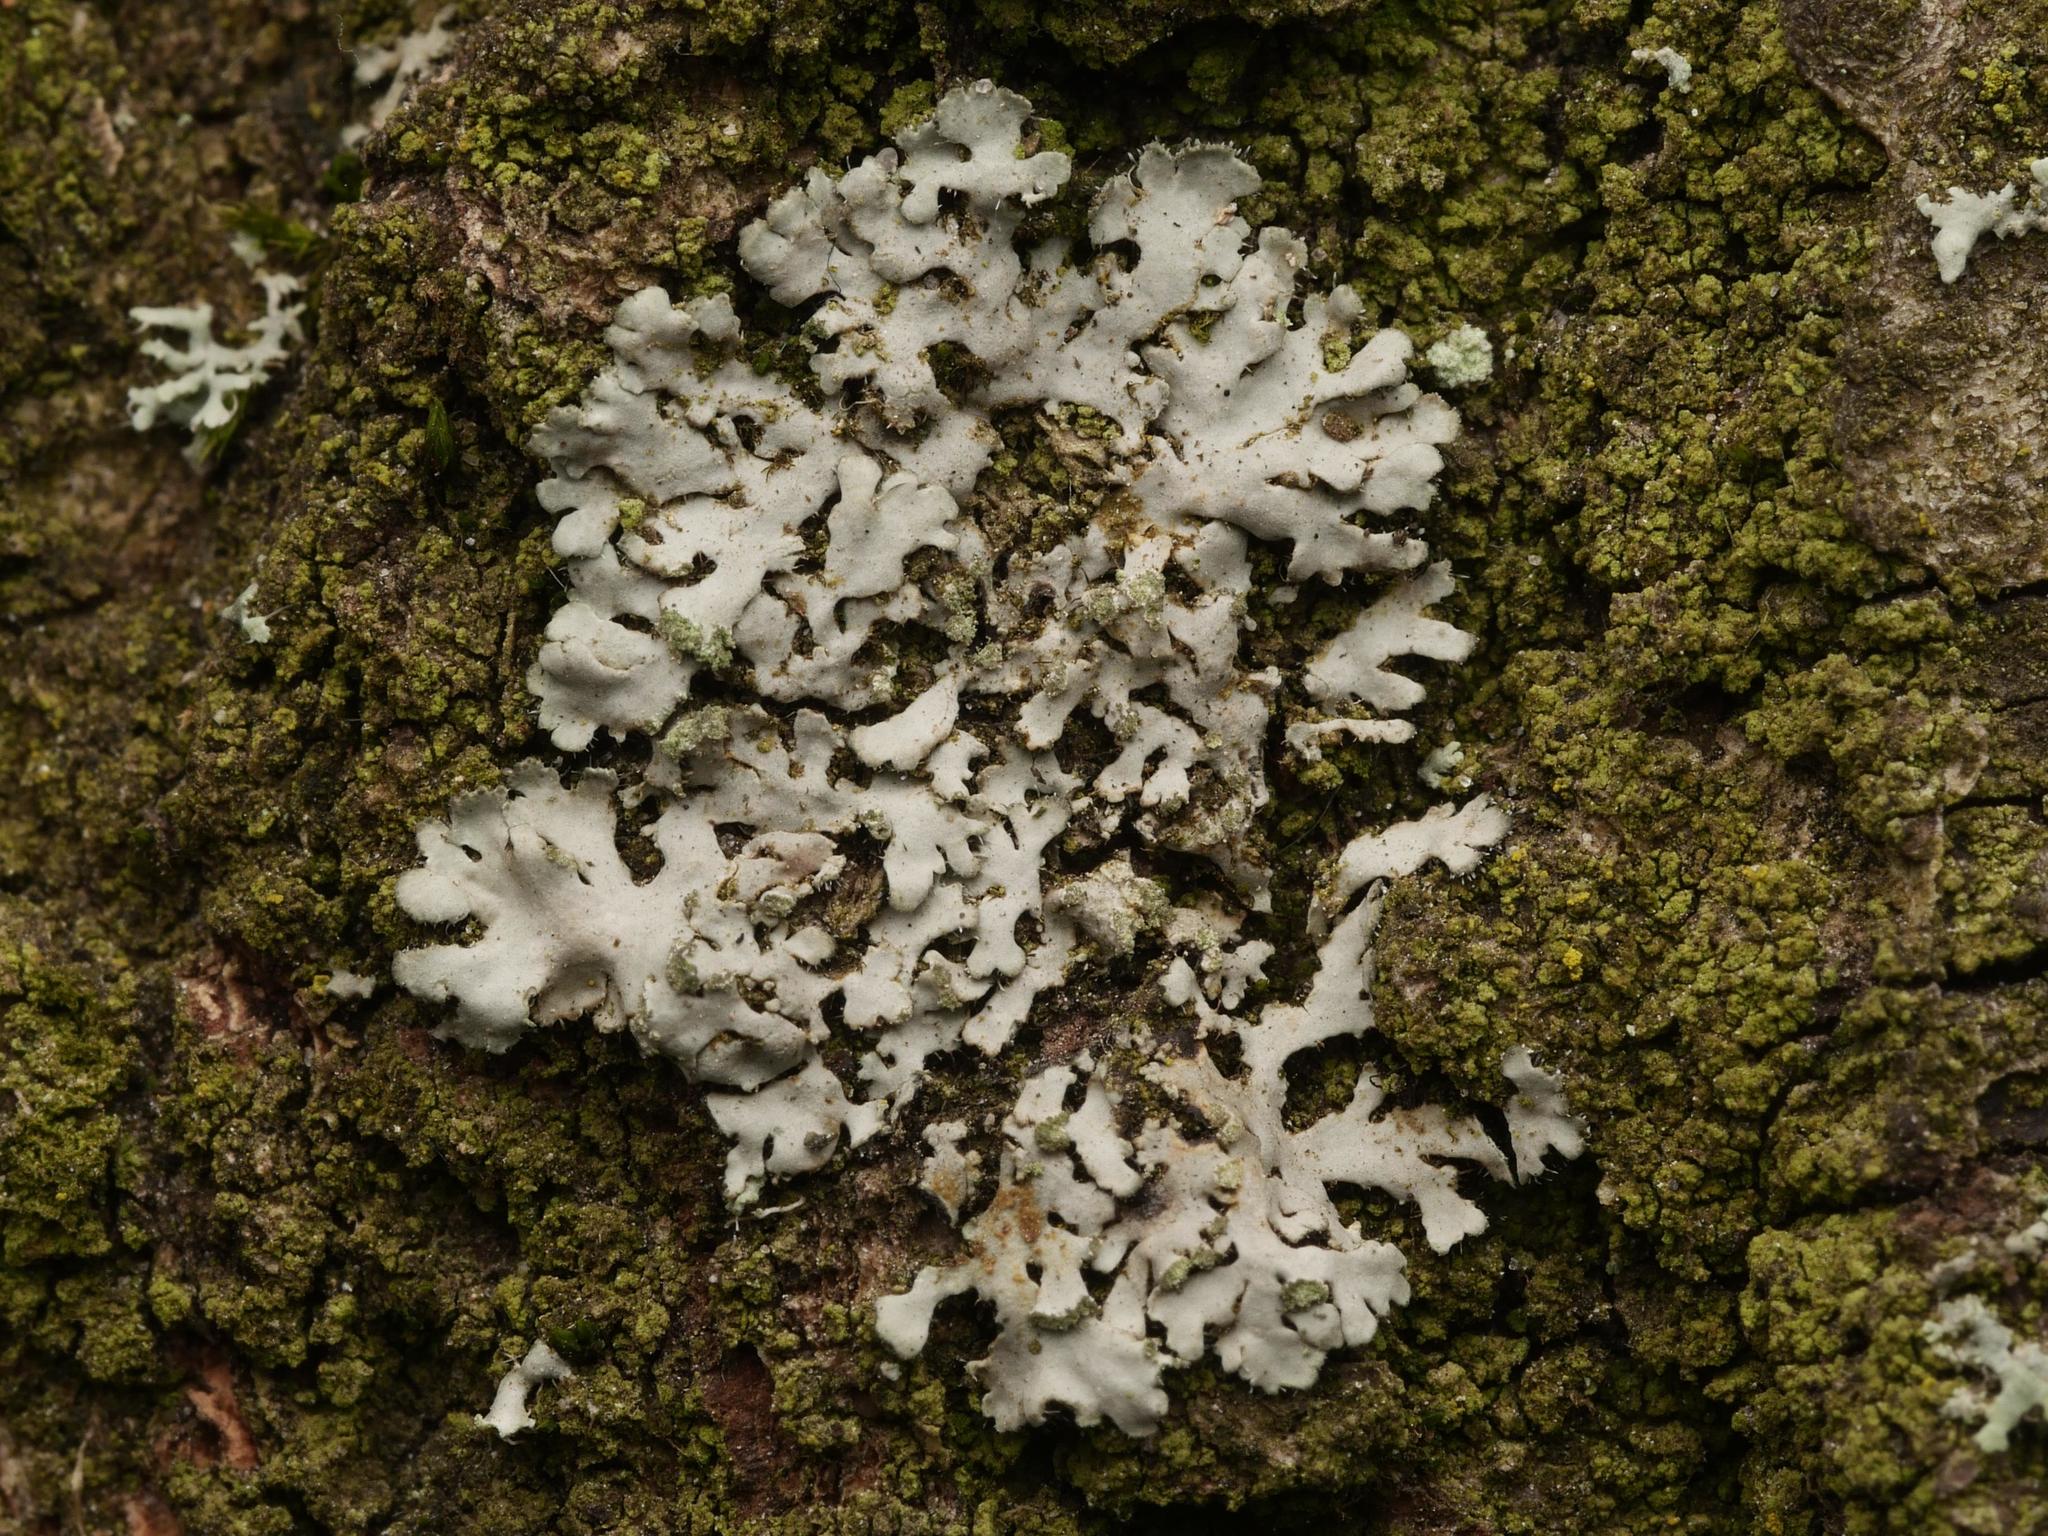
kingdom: Fungi
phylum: Ascomycota
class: Lecanoromycetes
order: Caliciales
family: Physciaceae
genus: Phaeophyscia
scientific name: Phaeophyscia orbicularis
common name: Mealy shadow lichen
